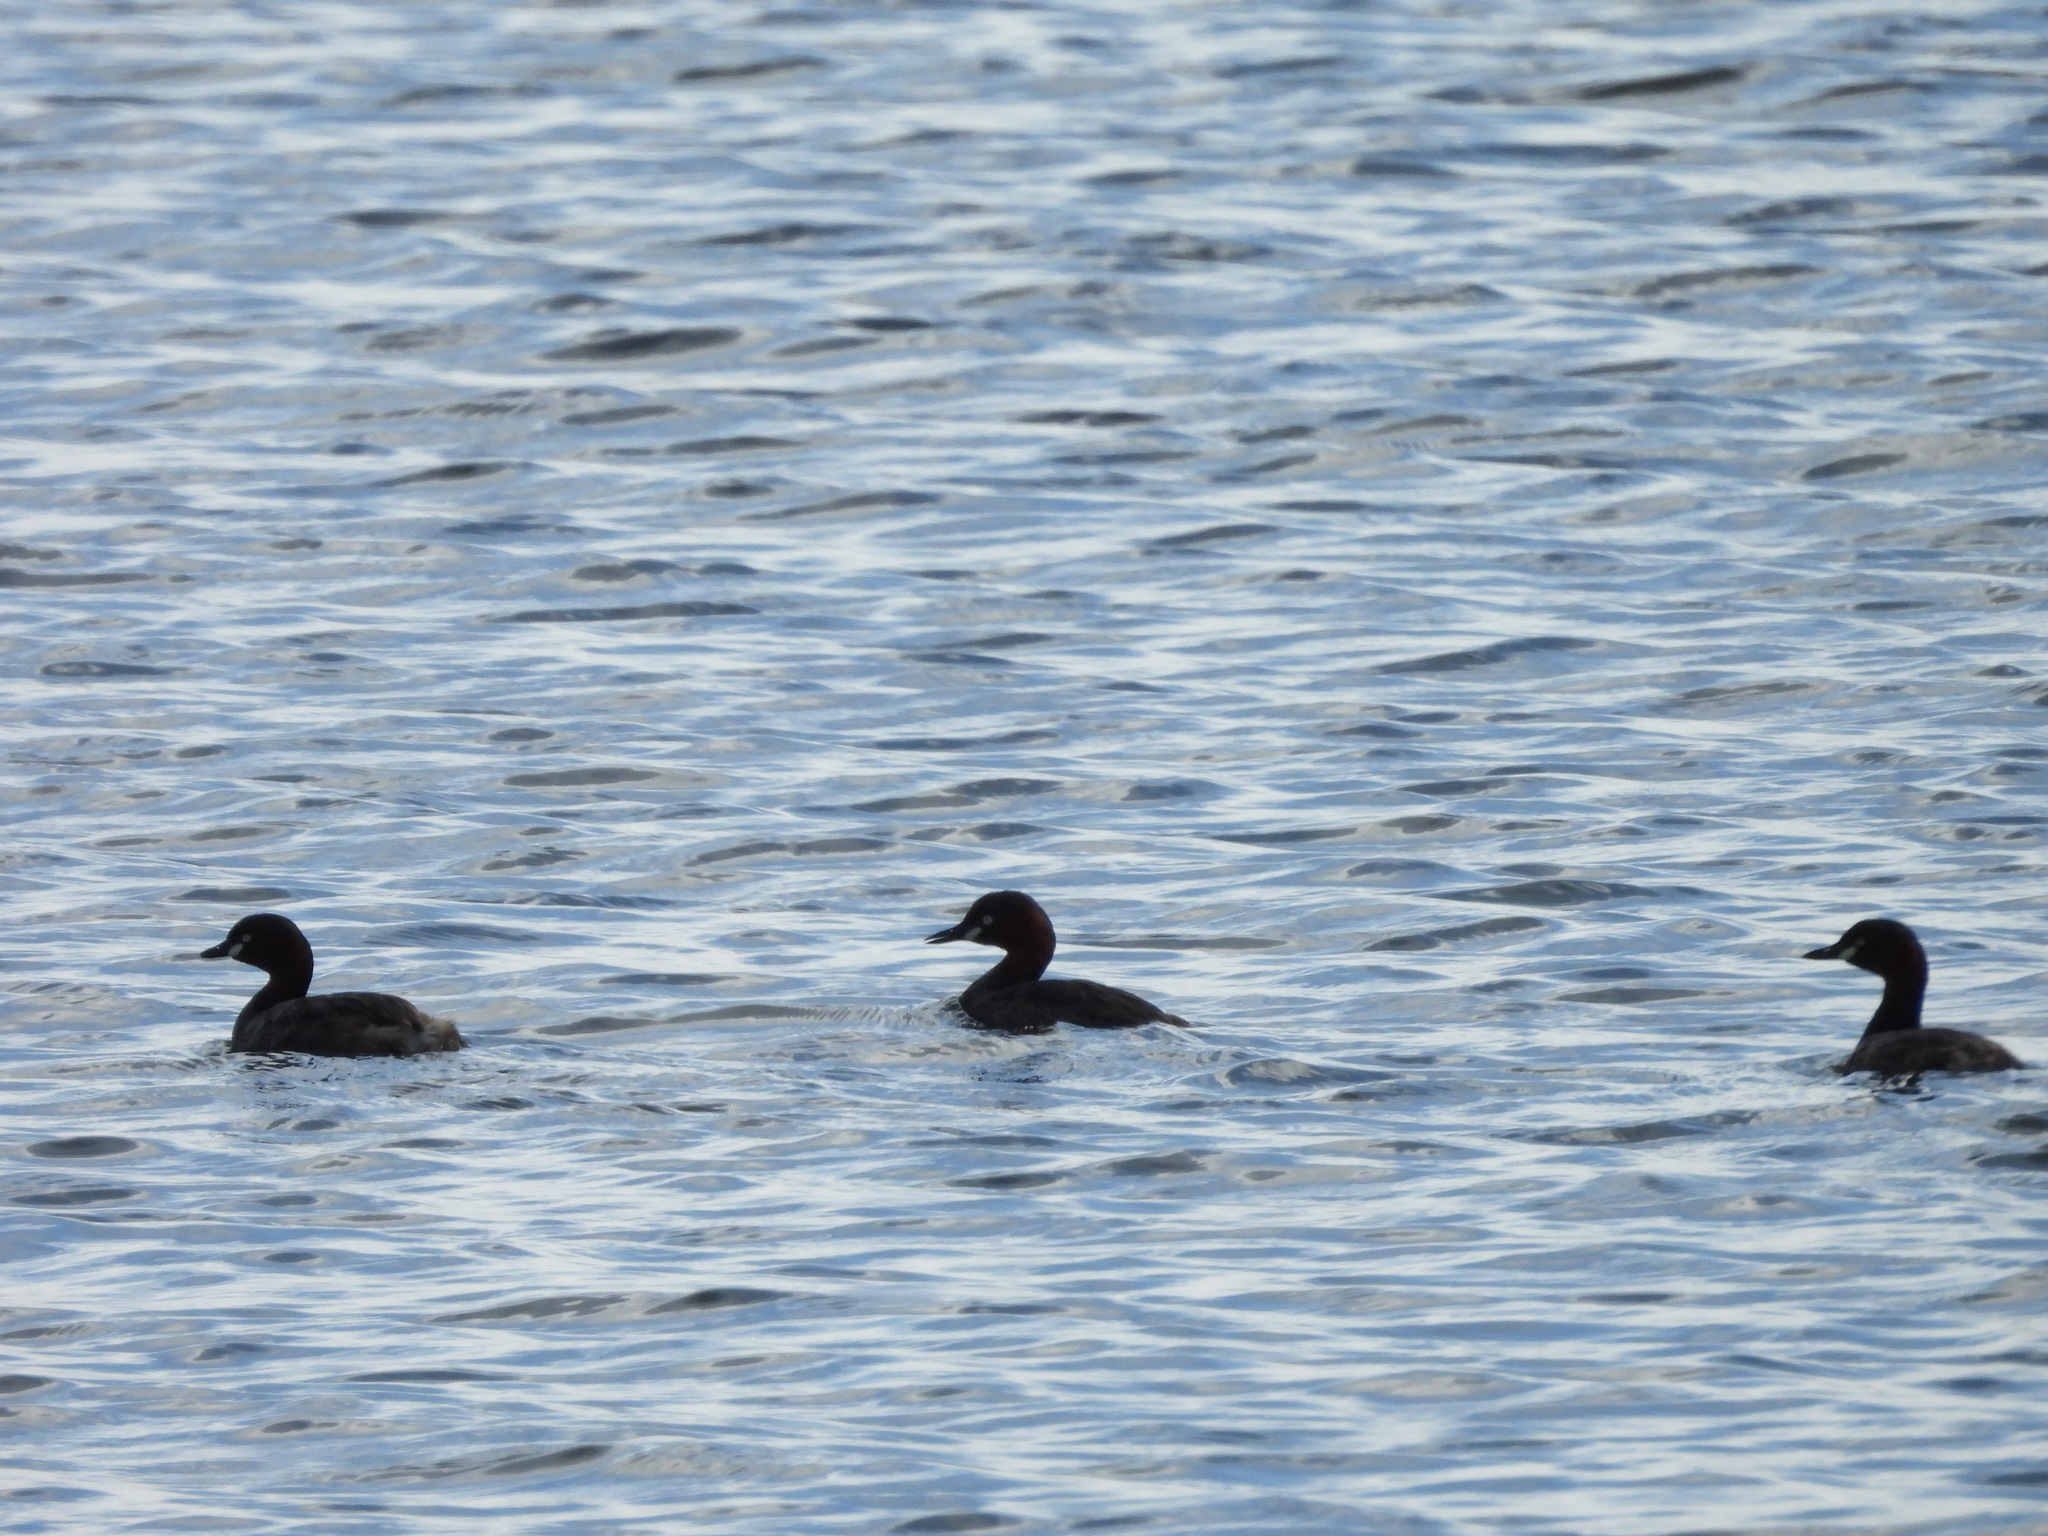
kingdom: Animalia
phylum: Chordata
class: Aves
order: Podicipediformes
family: Podicipedidae
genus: Tachybaptus
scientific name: Tachybaptus ruficollis
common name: Little grebe
